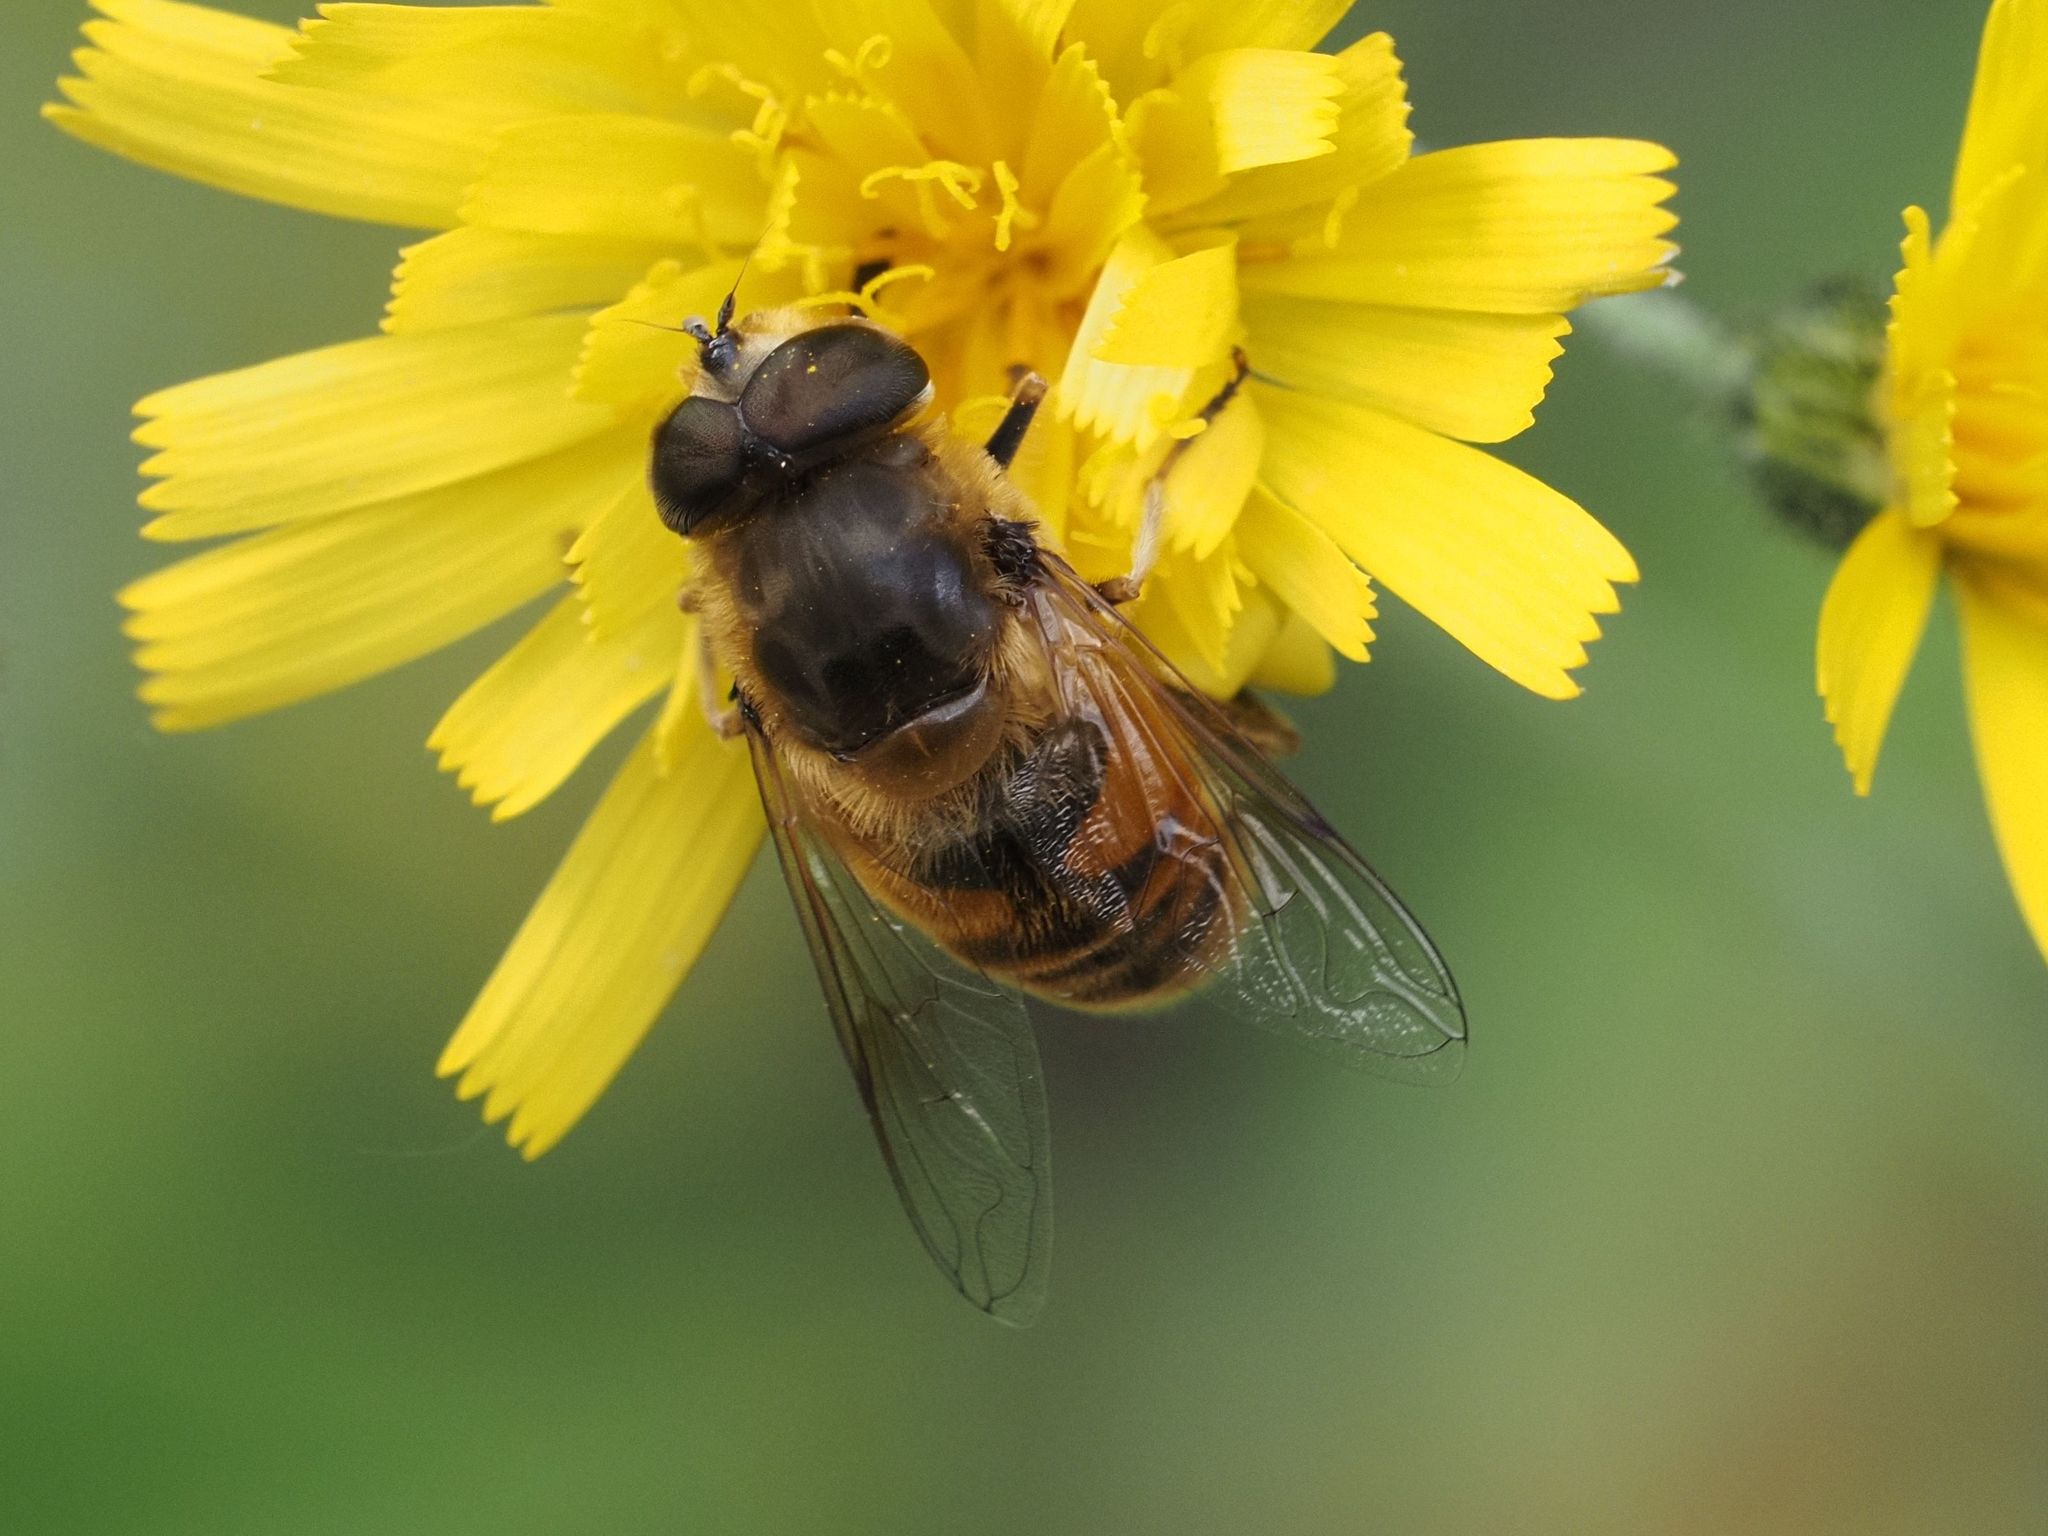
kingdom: Animalia
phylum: Arthropoda
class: Insecta
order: Diptera
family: Syrphidae
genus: Eristalis
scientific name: Eristalis tenax
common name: Drone fly
